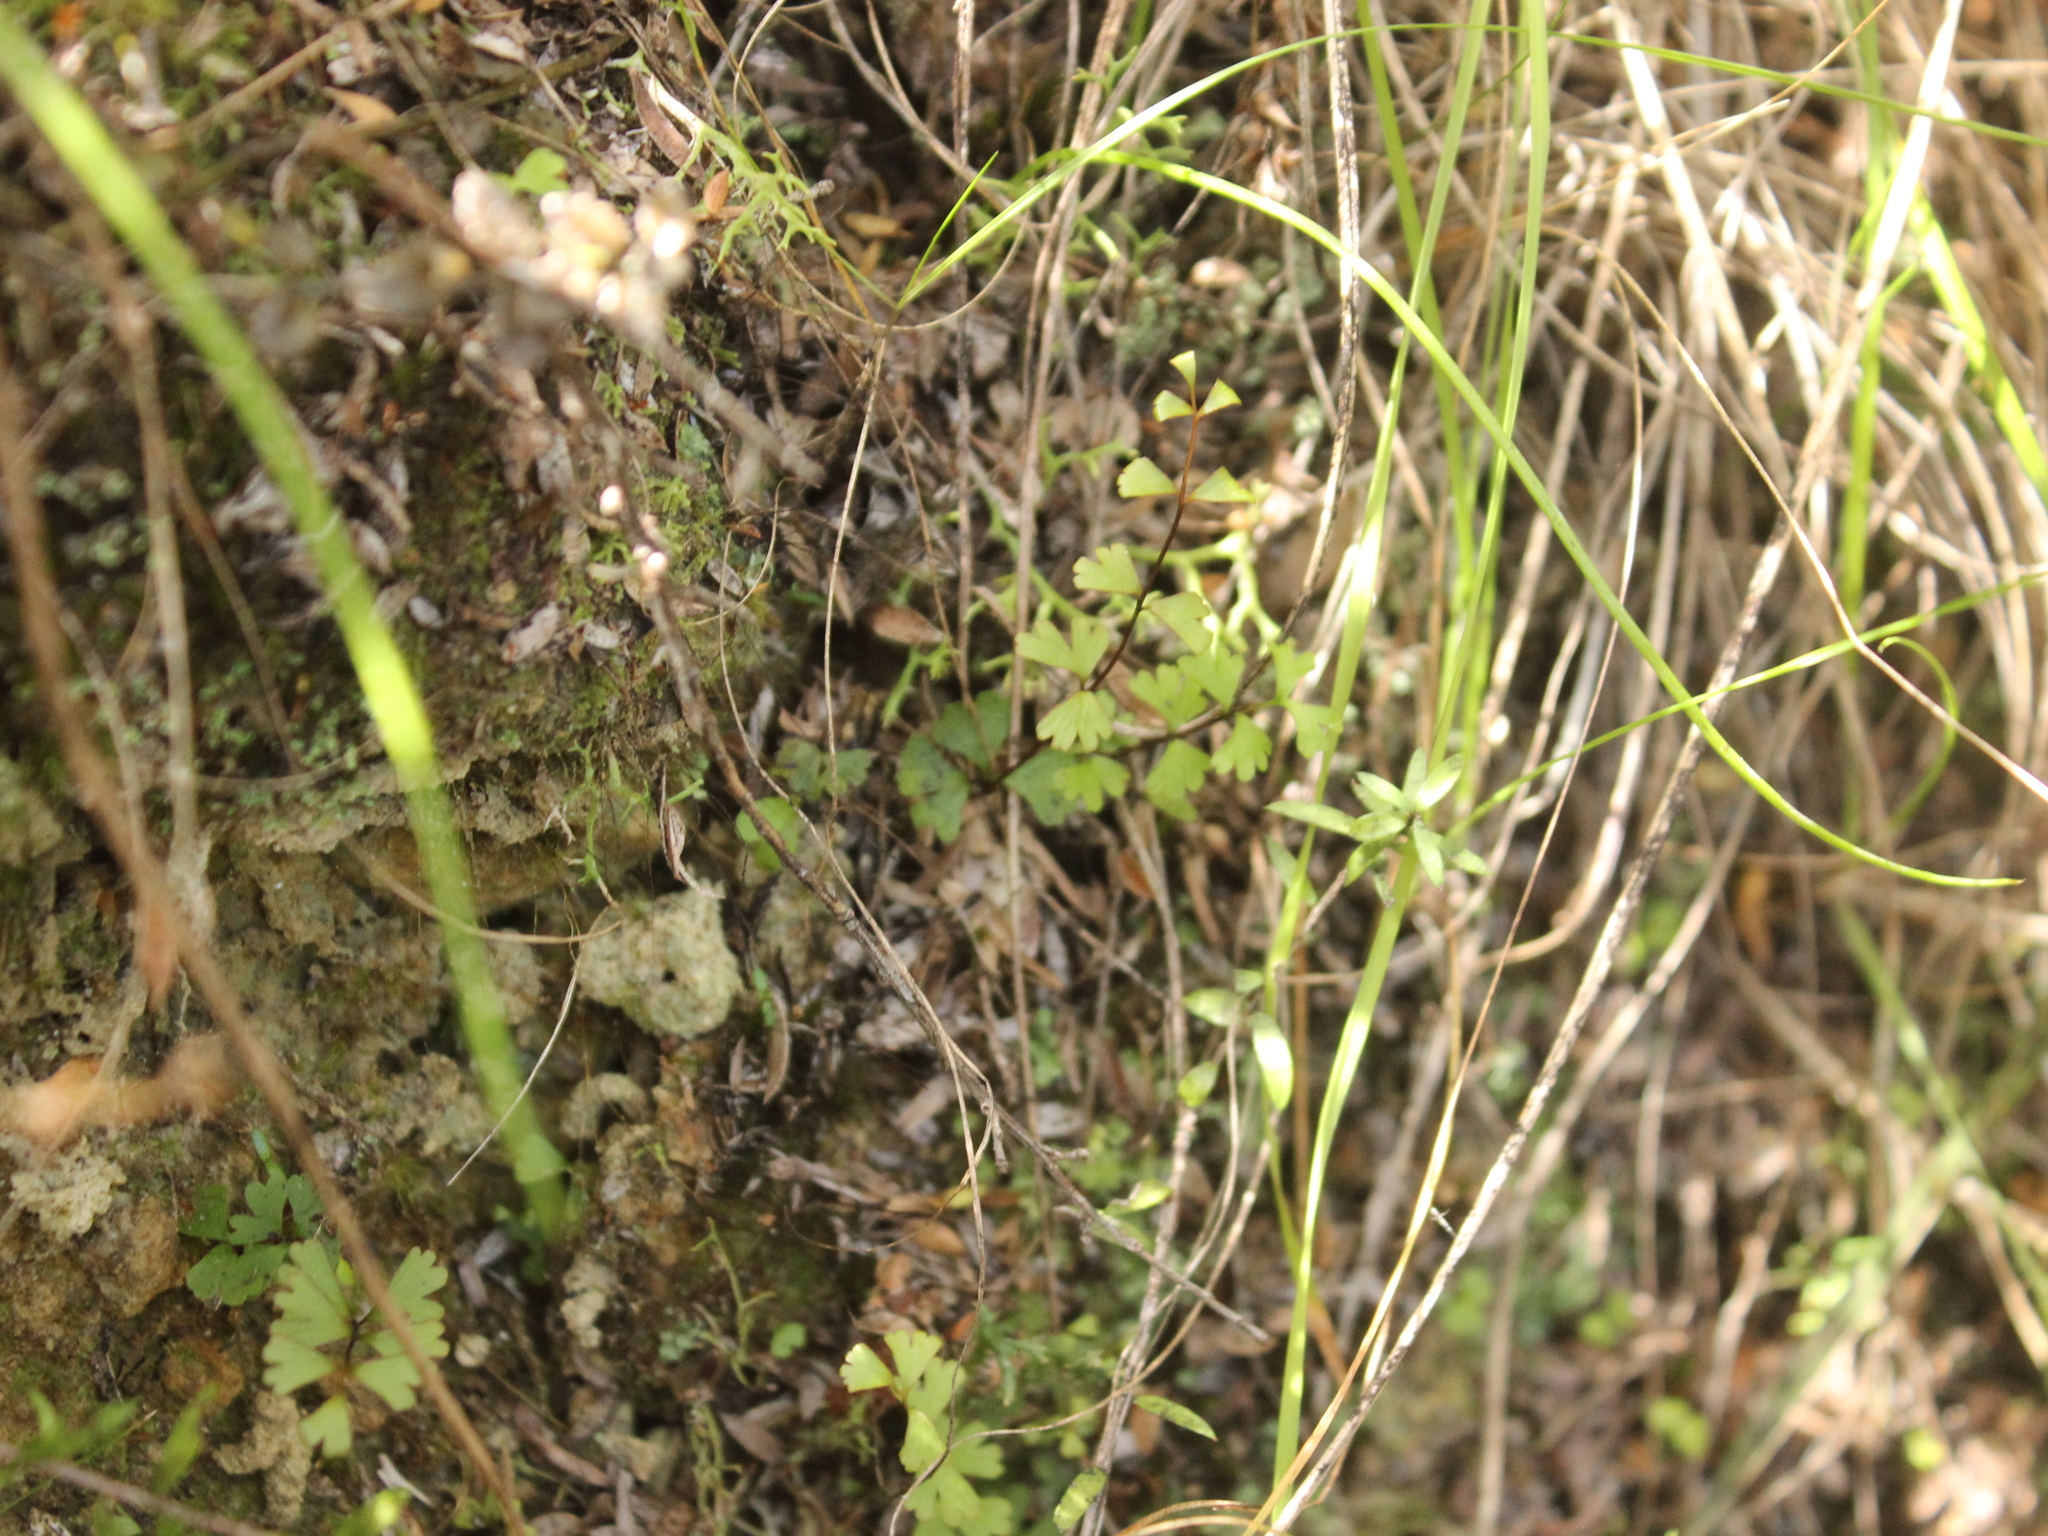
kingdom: Plantae
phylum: Tracheophyta
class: Polypodiopsida
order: Polypodiales
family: Lindsaeaceae
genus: Lindsaea
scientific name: Lindsaea linearis
